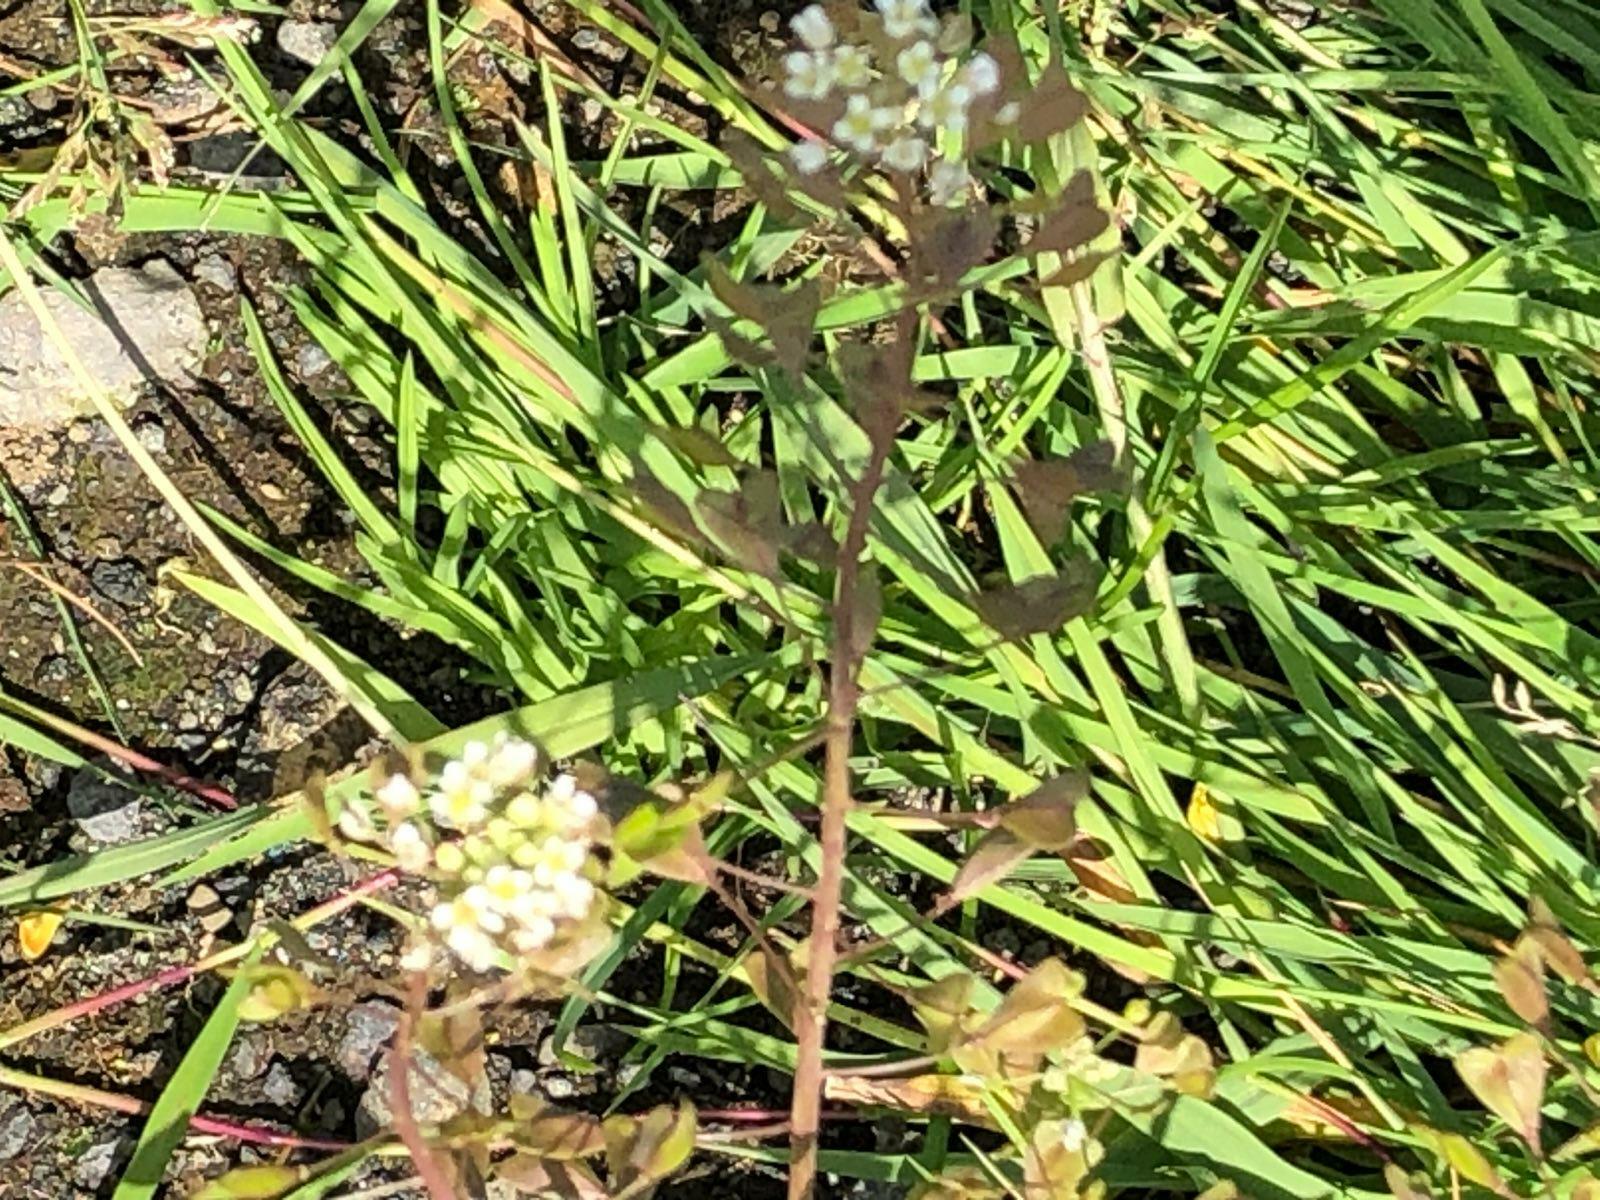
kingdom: Plantae
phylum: Tracheophyta
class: Magnoliopsida
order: Brassicales
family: Brassicaceae
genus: Capsella
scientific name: Capsella bursa-pastoris
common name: Shepherd's purse
